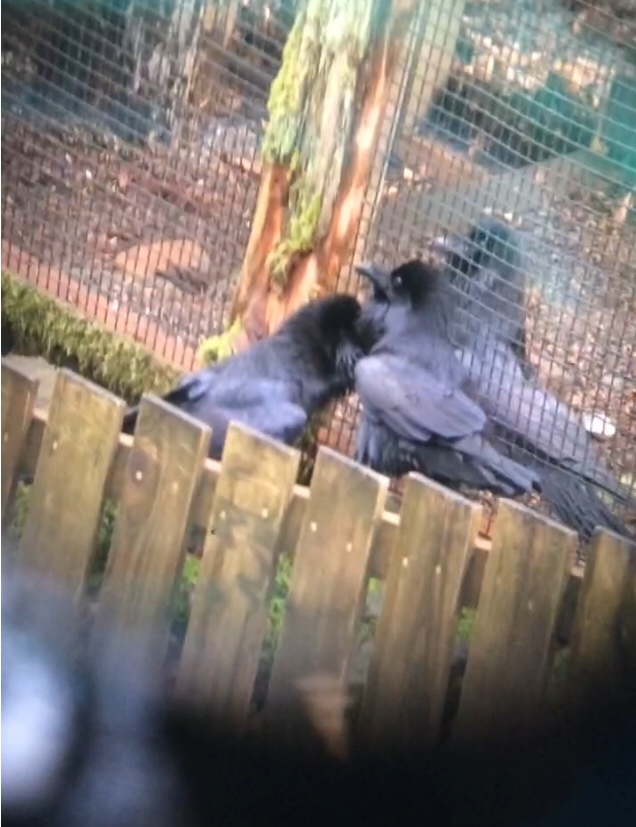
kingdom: Animalia
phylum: Chordata
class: Aves
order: Passeriformes
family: Corvidae
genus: Corvus
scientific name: Corvus corax
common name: Common raven
